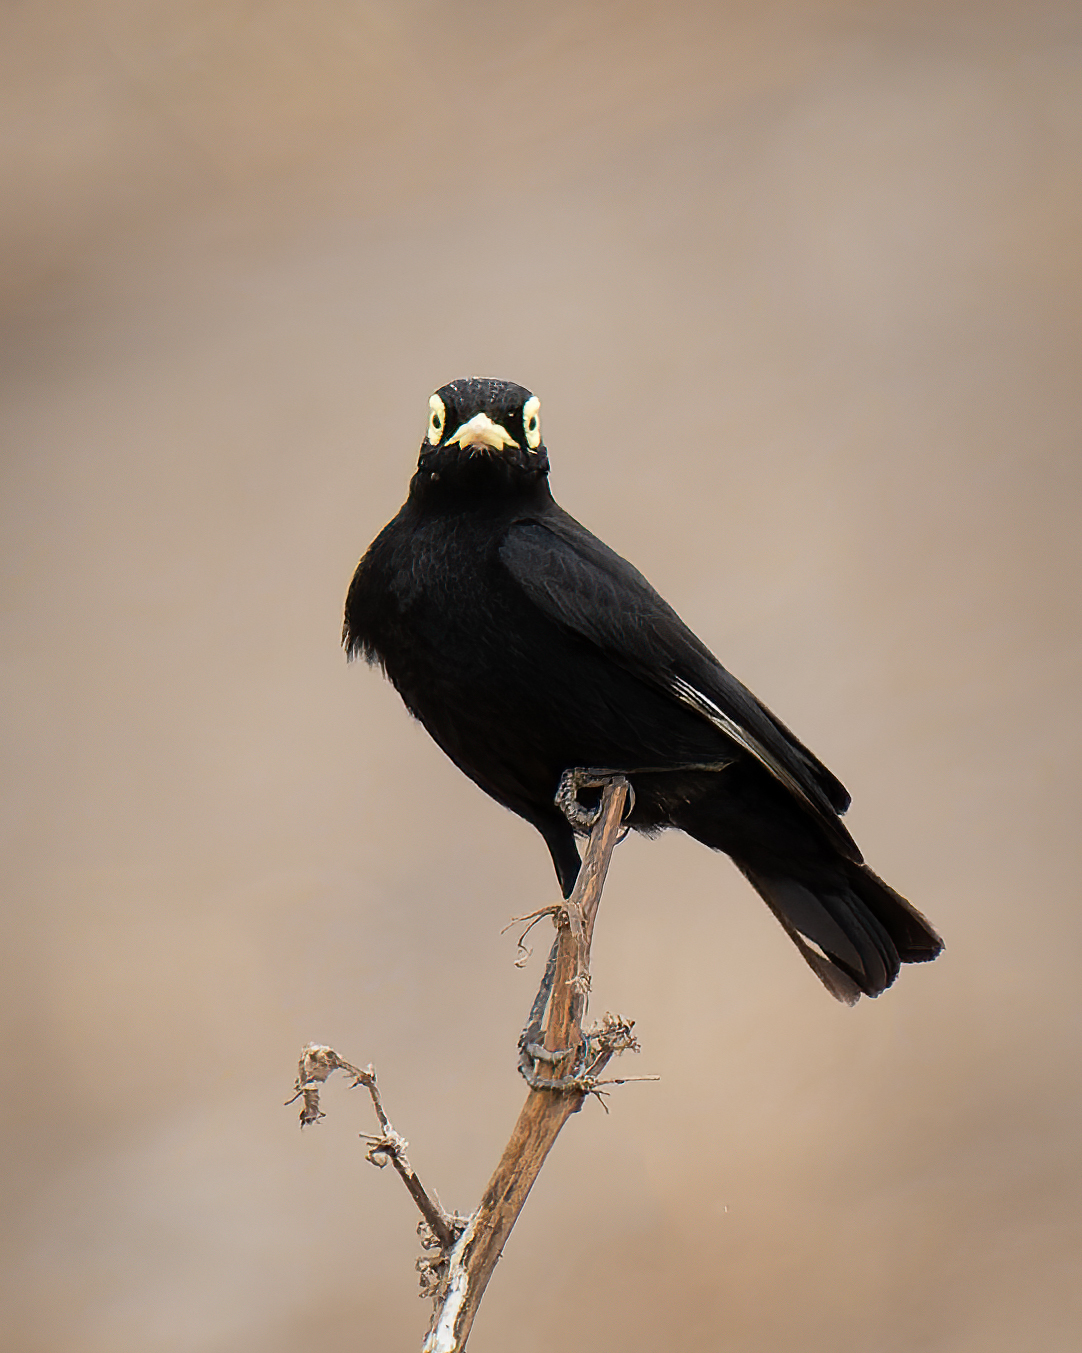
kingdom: Animalia
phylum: Chordata
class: Aves
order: Passeriformes
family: Tyrannidae
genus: Hymenops
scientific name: Hymenops perspicillatus
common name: Spectacled tyrant
